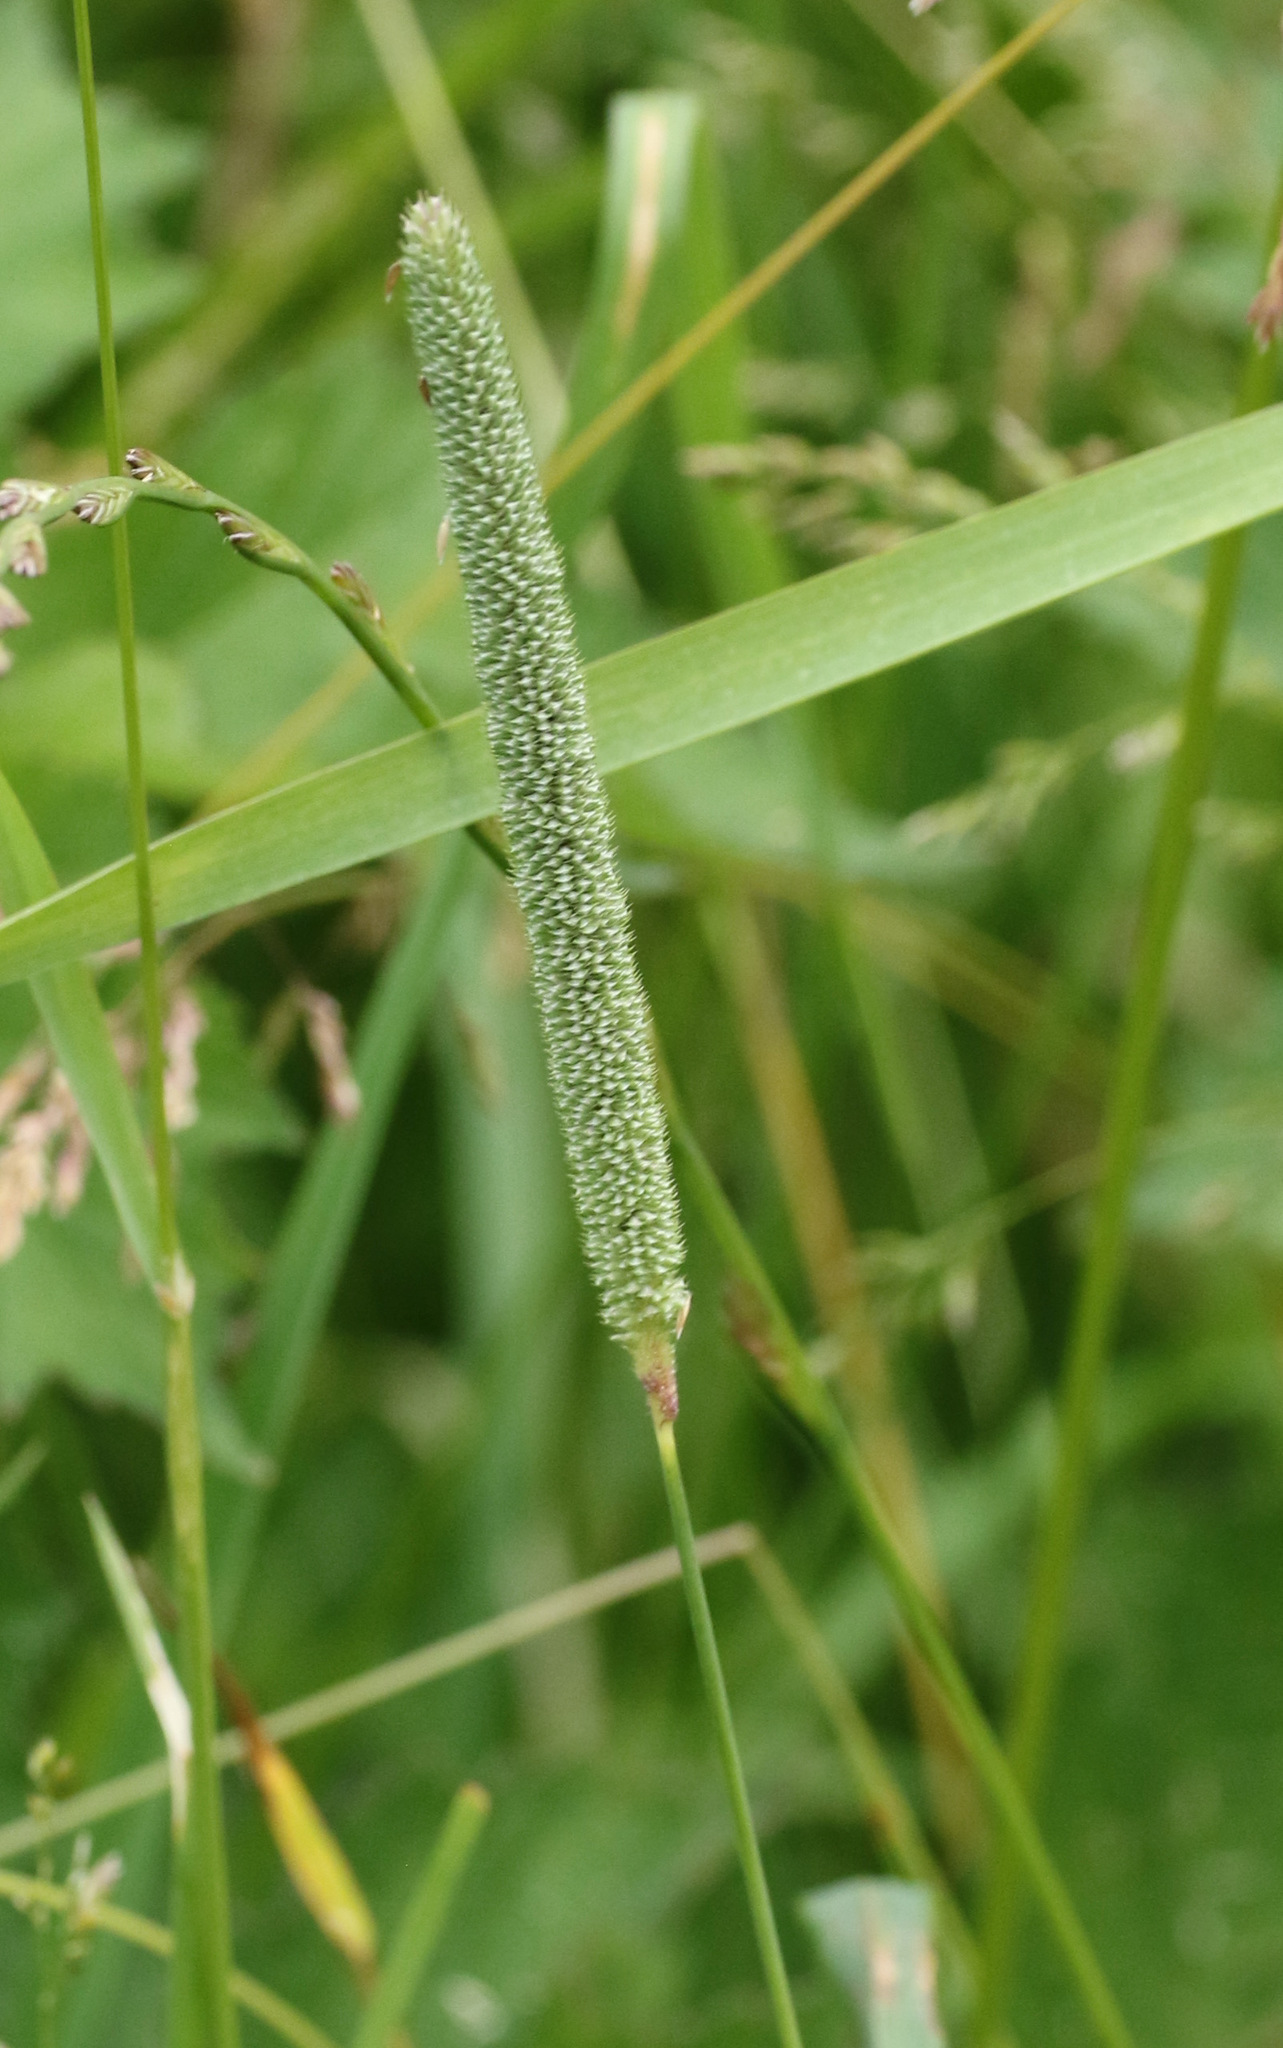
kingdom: Plantae
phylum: Tracheophyta
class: Liliopsida
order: Poales
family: Poaceae
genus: Phleum
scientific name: Phleum pratense
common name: Timothy grass
